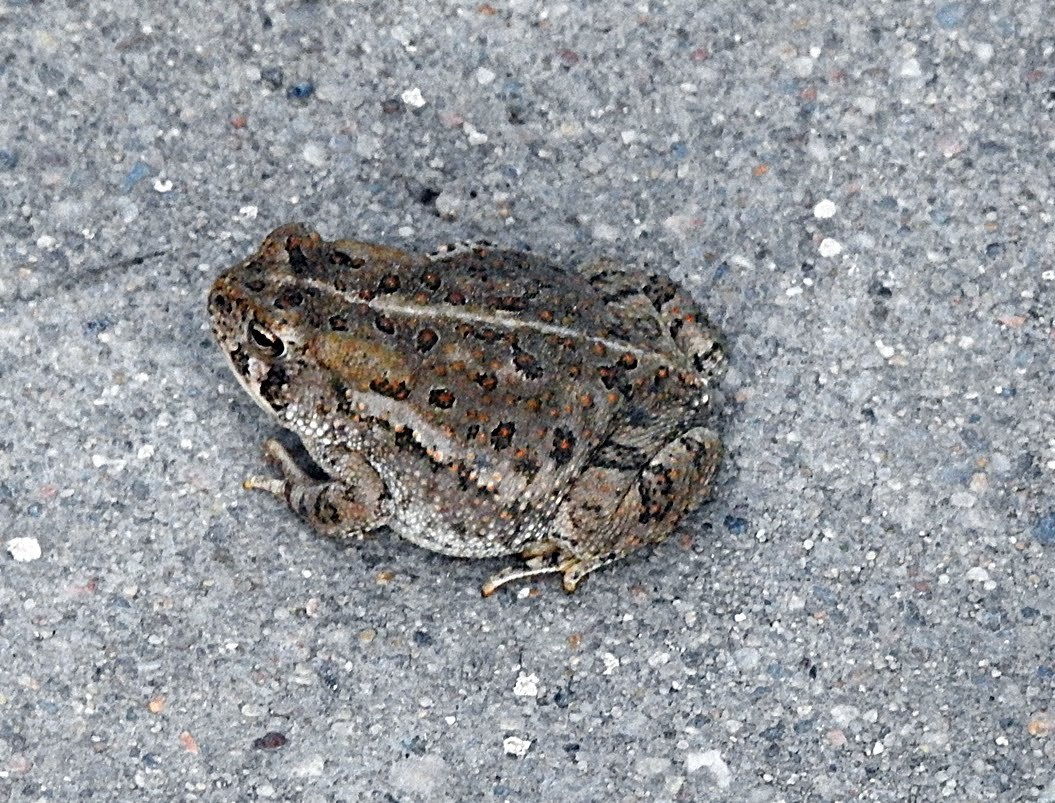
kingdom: Animalia
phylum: Chordata
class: Amphibia
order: Anura
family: Bufonidae
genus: Anaxyrus
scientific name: Anaxyrus woodhousii
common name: Woodhouse's toad
